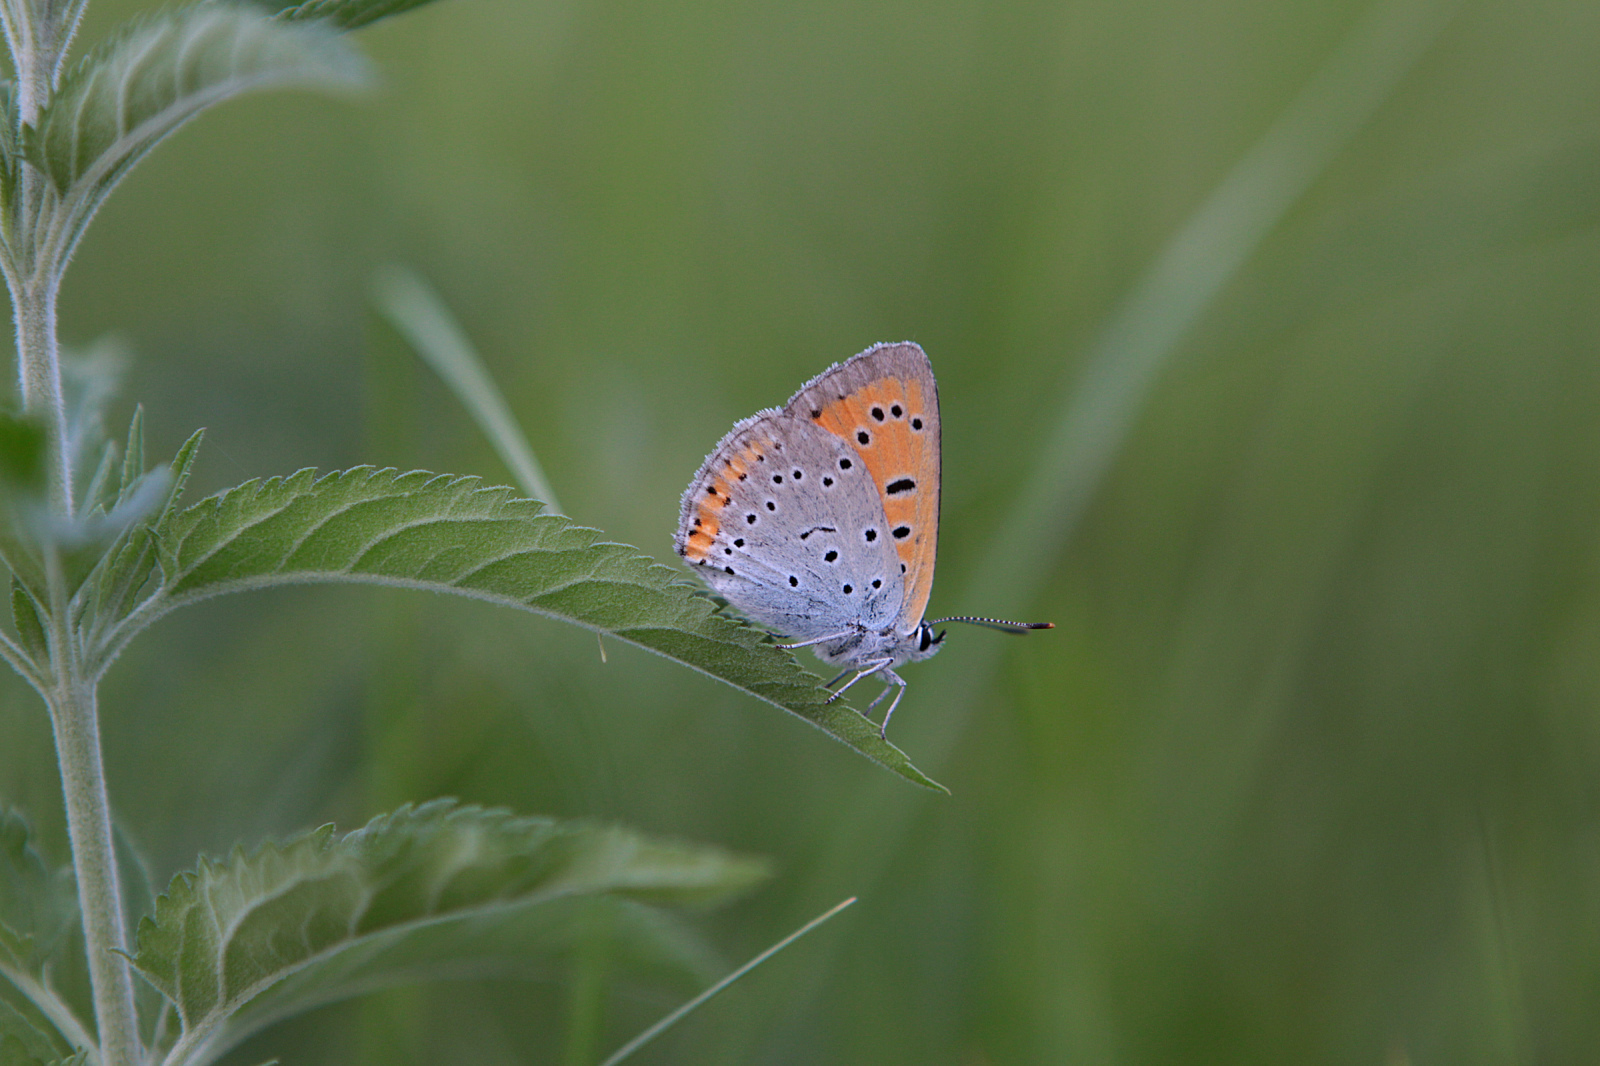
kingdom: Animalia
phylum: Arthropoda
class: Insecta
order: Lepidoptera
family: Lycaenidae
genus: Lycaena
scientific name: Lycaena dispar
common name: Large copper
